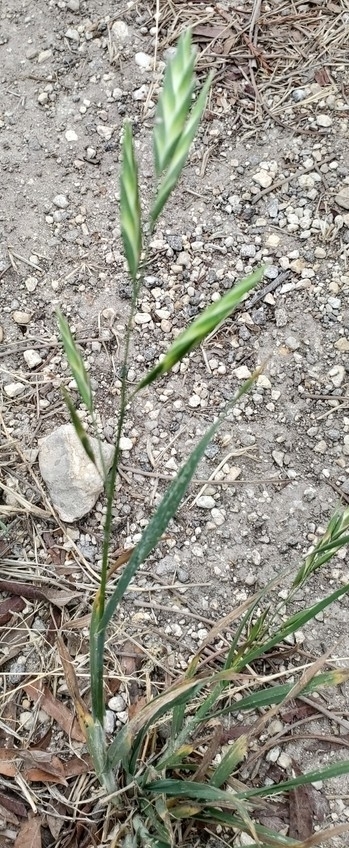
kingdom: Plantae
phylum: Tracheophyta
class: Liliopsida
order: Poales
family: Poaceae
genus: Bromus
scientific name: Bromus catharticus
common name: Rescuegrass
